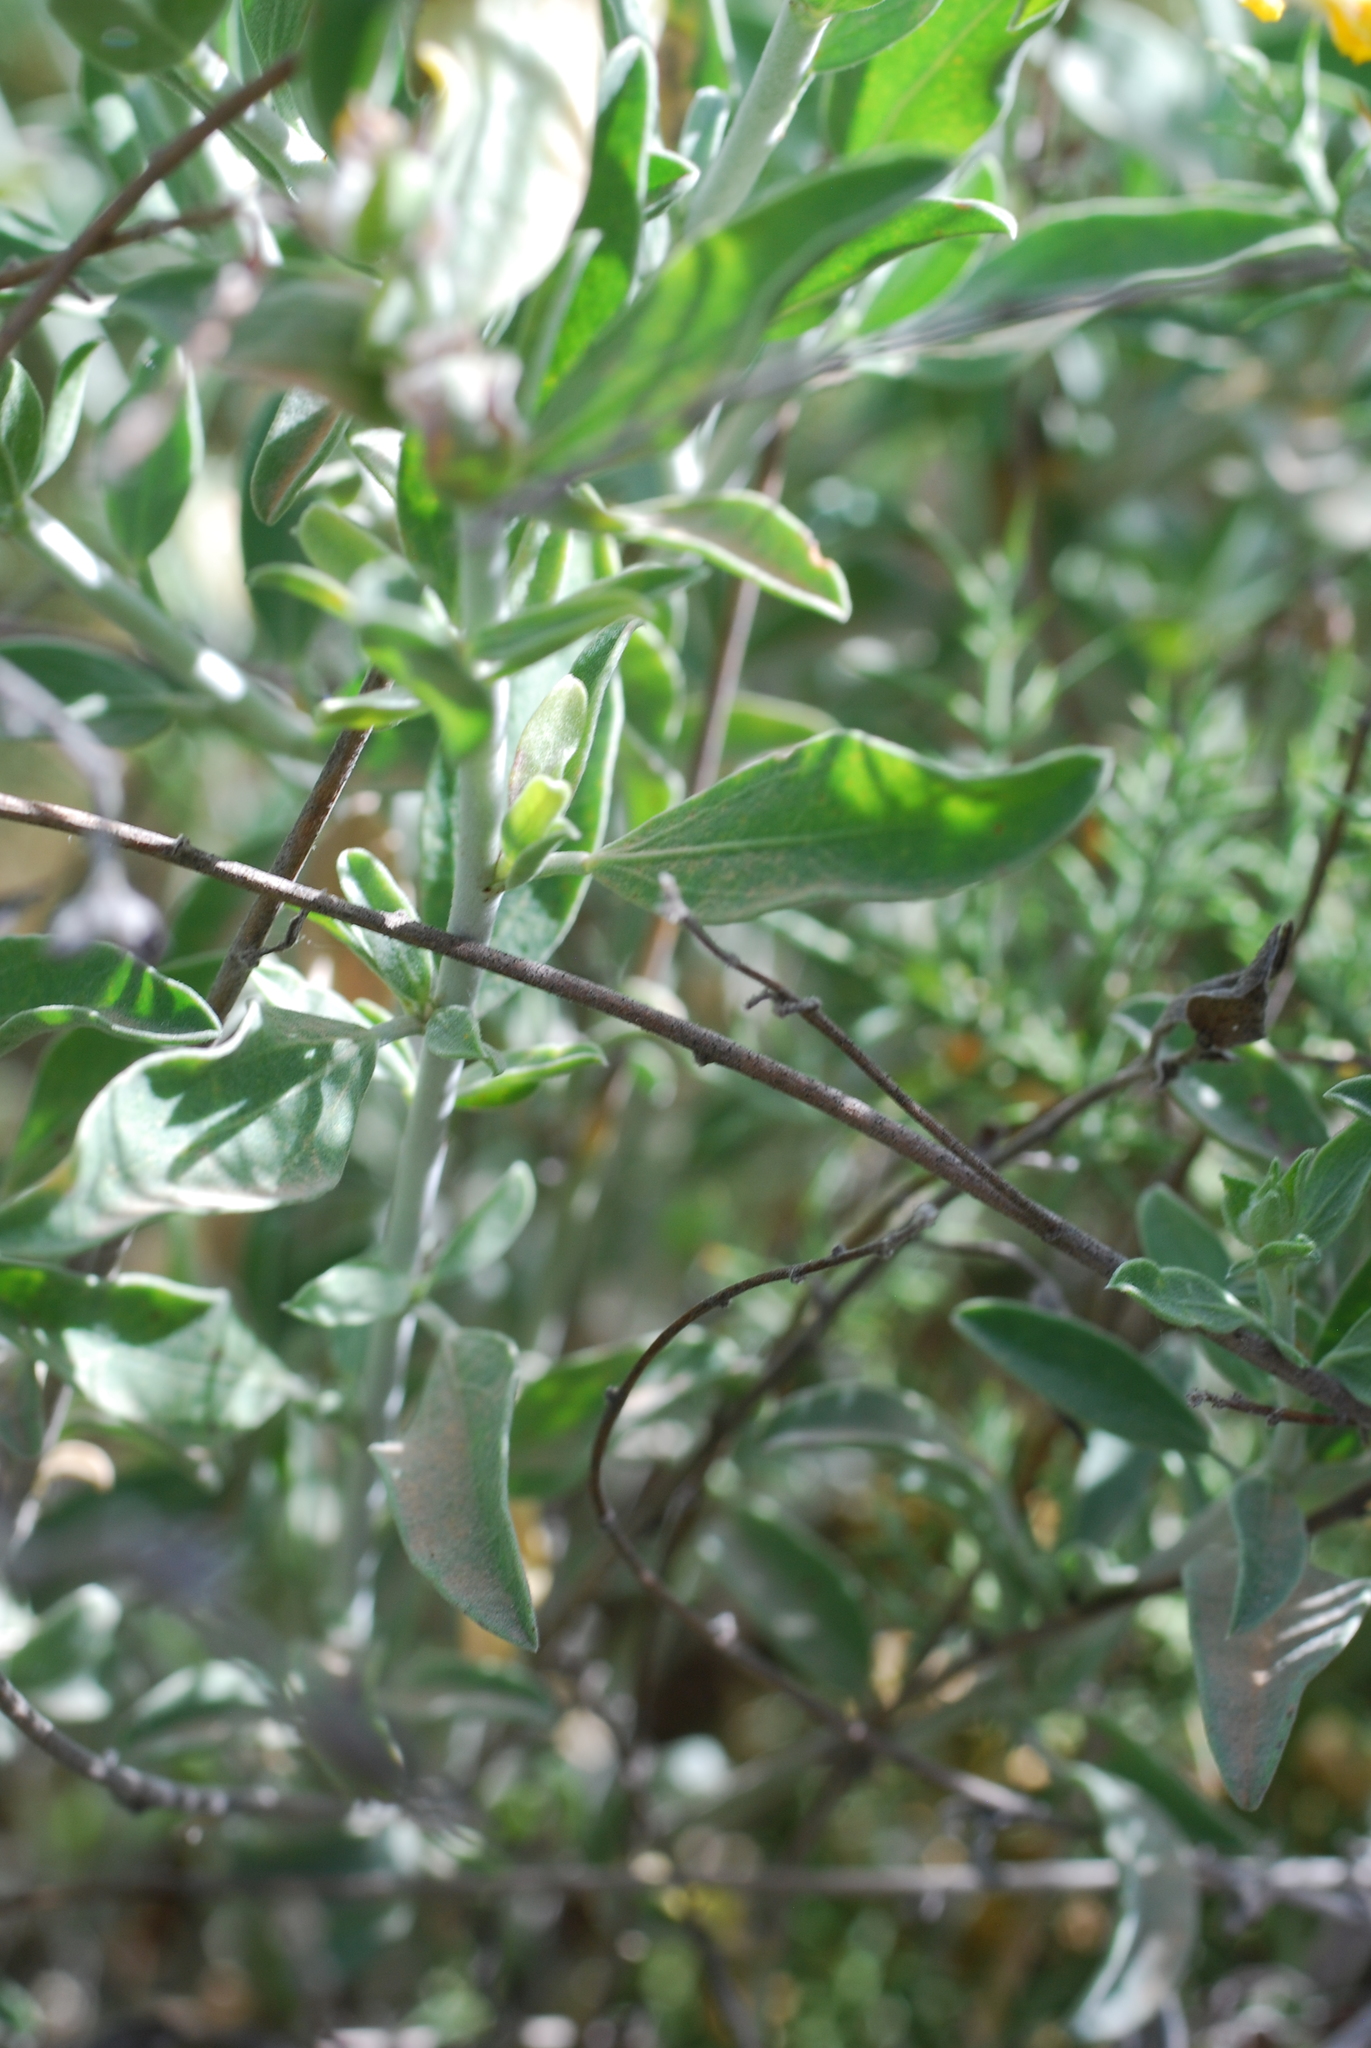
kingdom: Plantae
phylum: Tracheophyta
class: Magnoliopsida
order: Fabales
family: Fabaceae
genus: Anthyllis
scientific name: Anthyllis cytisoides
